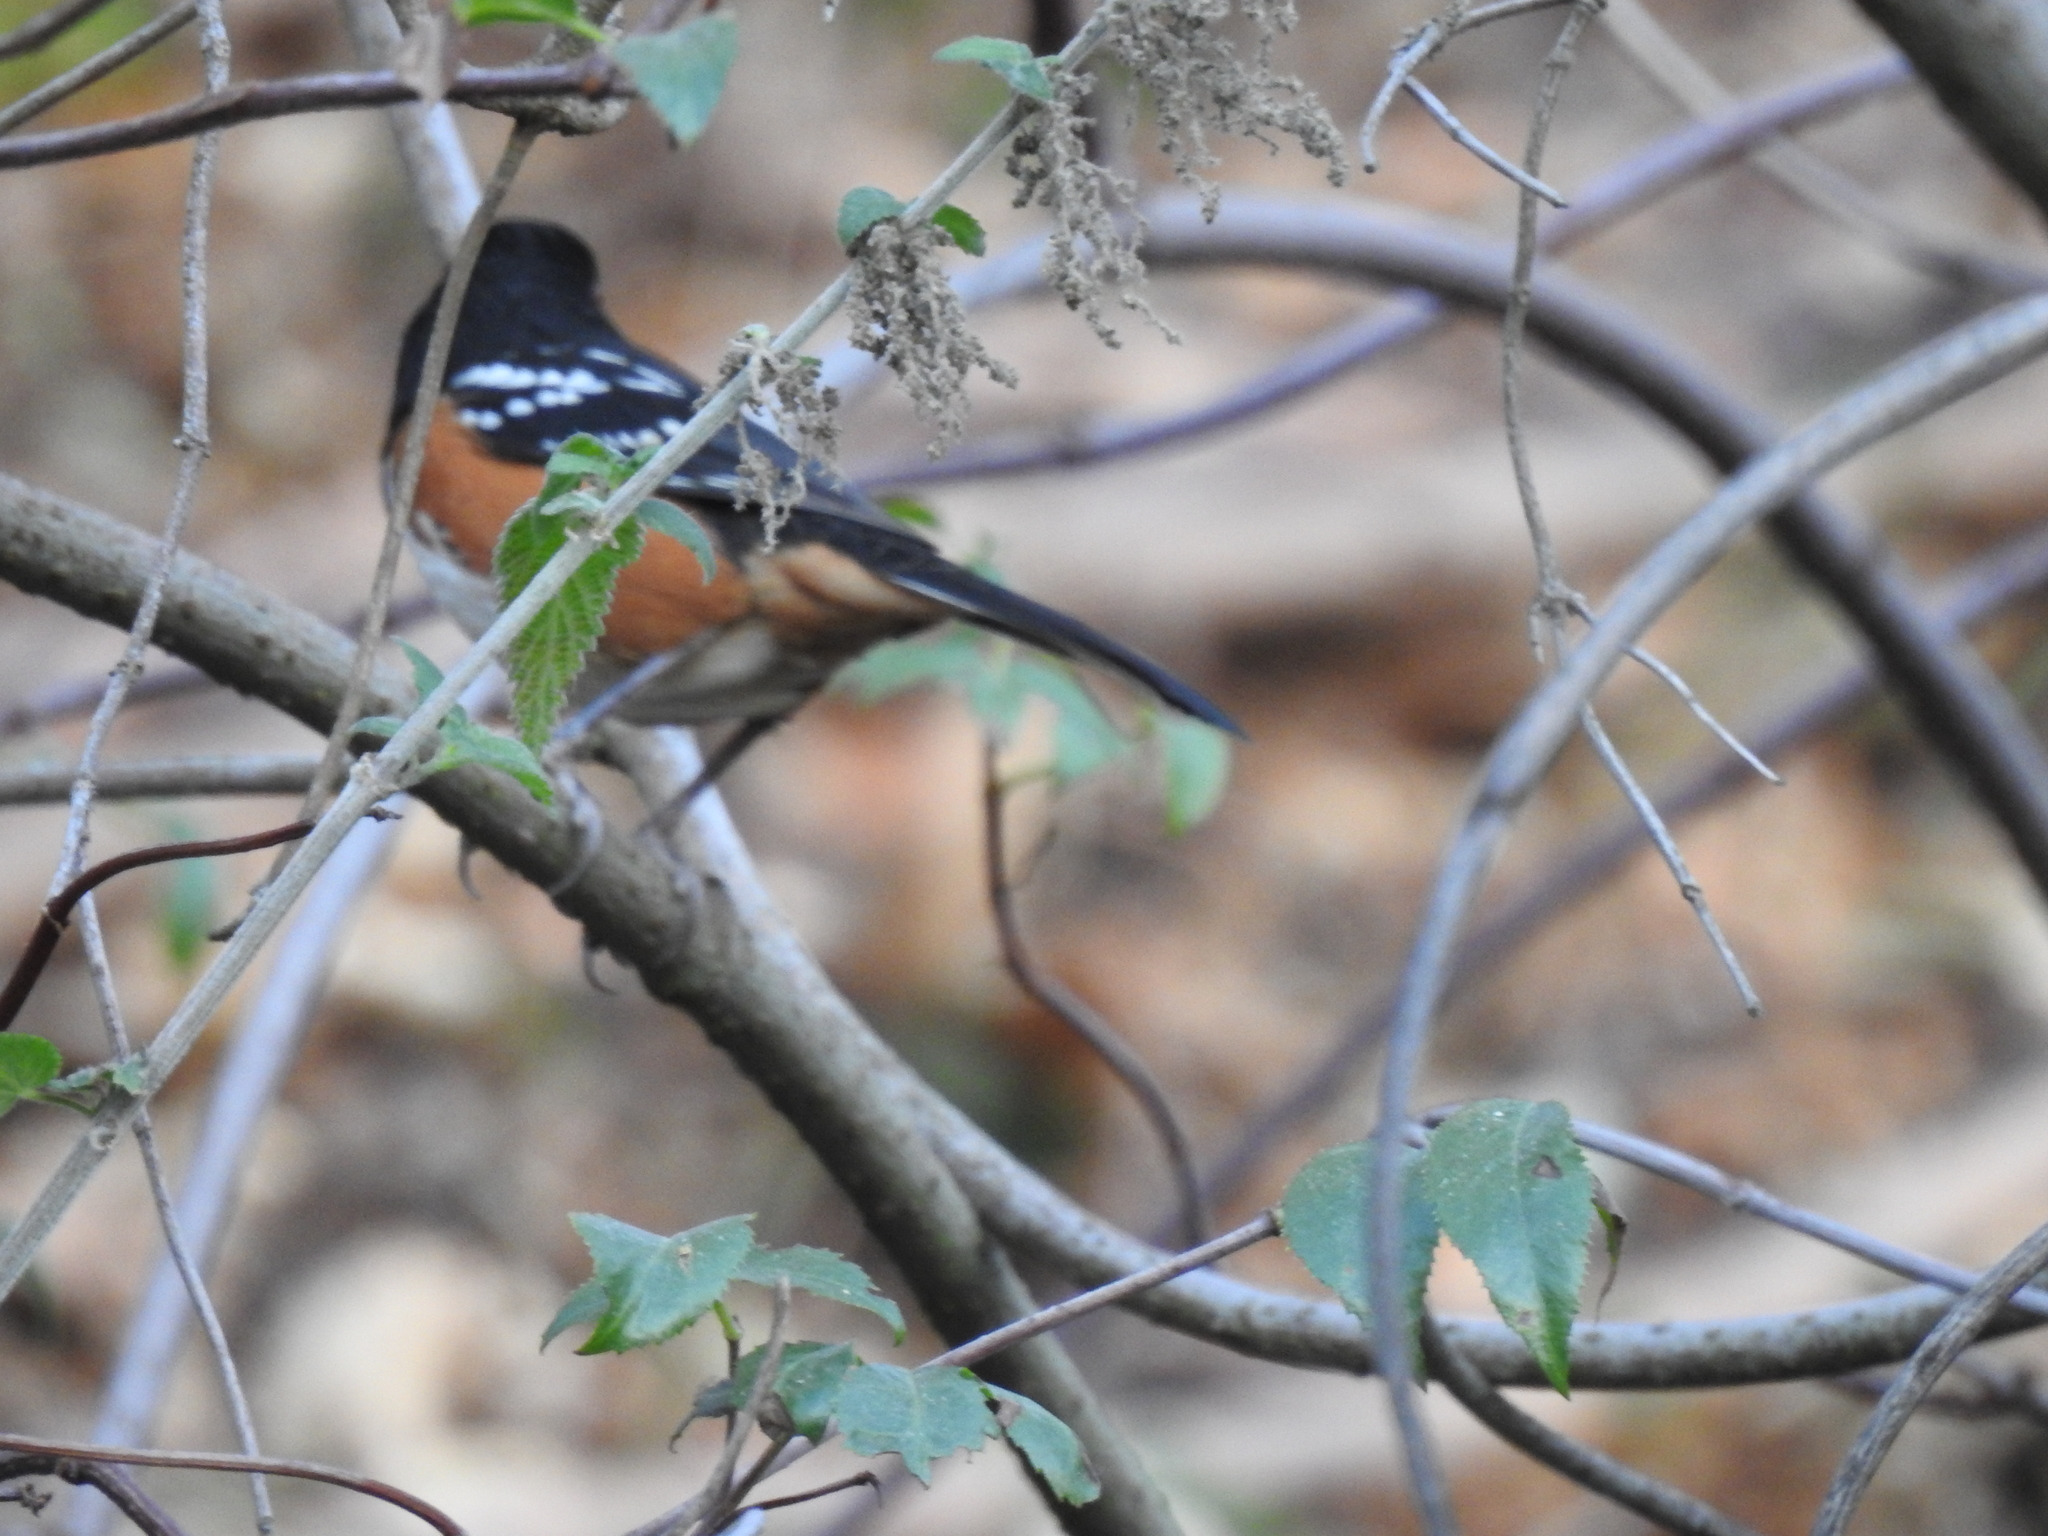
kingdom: Animalia
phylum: Chordata
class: Aves
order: Passeriformes
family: Passerellidae
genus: Pipilo
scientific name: Pipilo maculatus
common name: Spotted towhee
